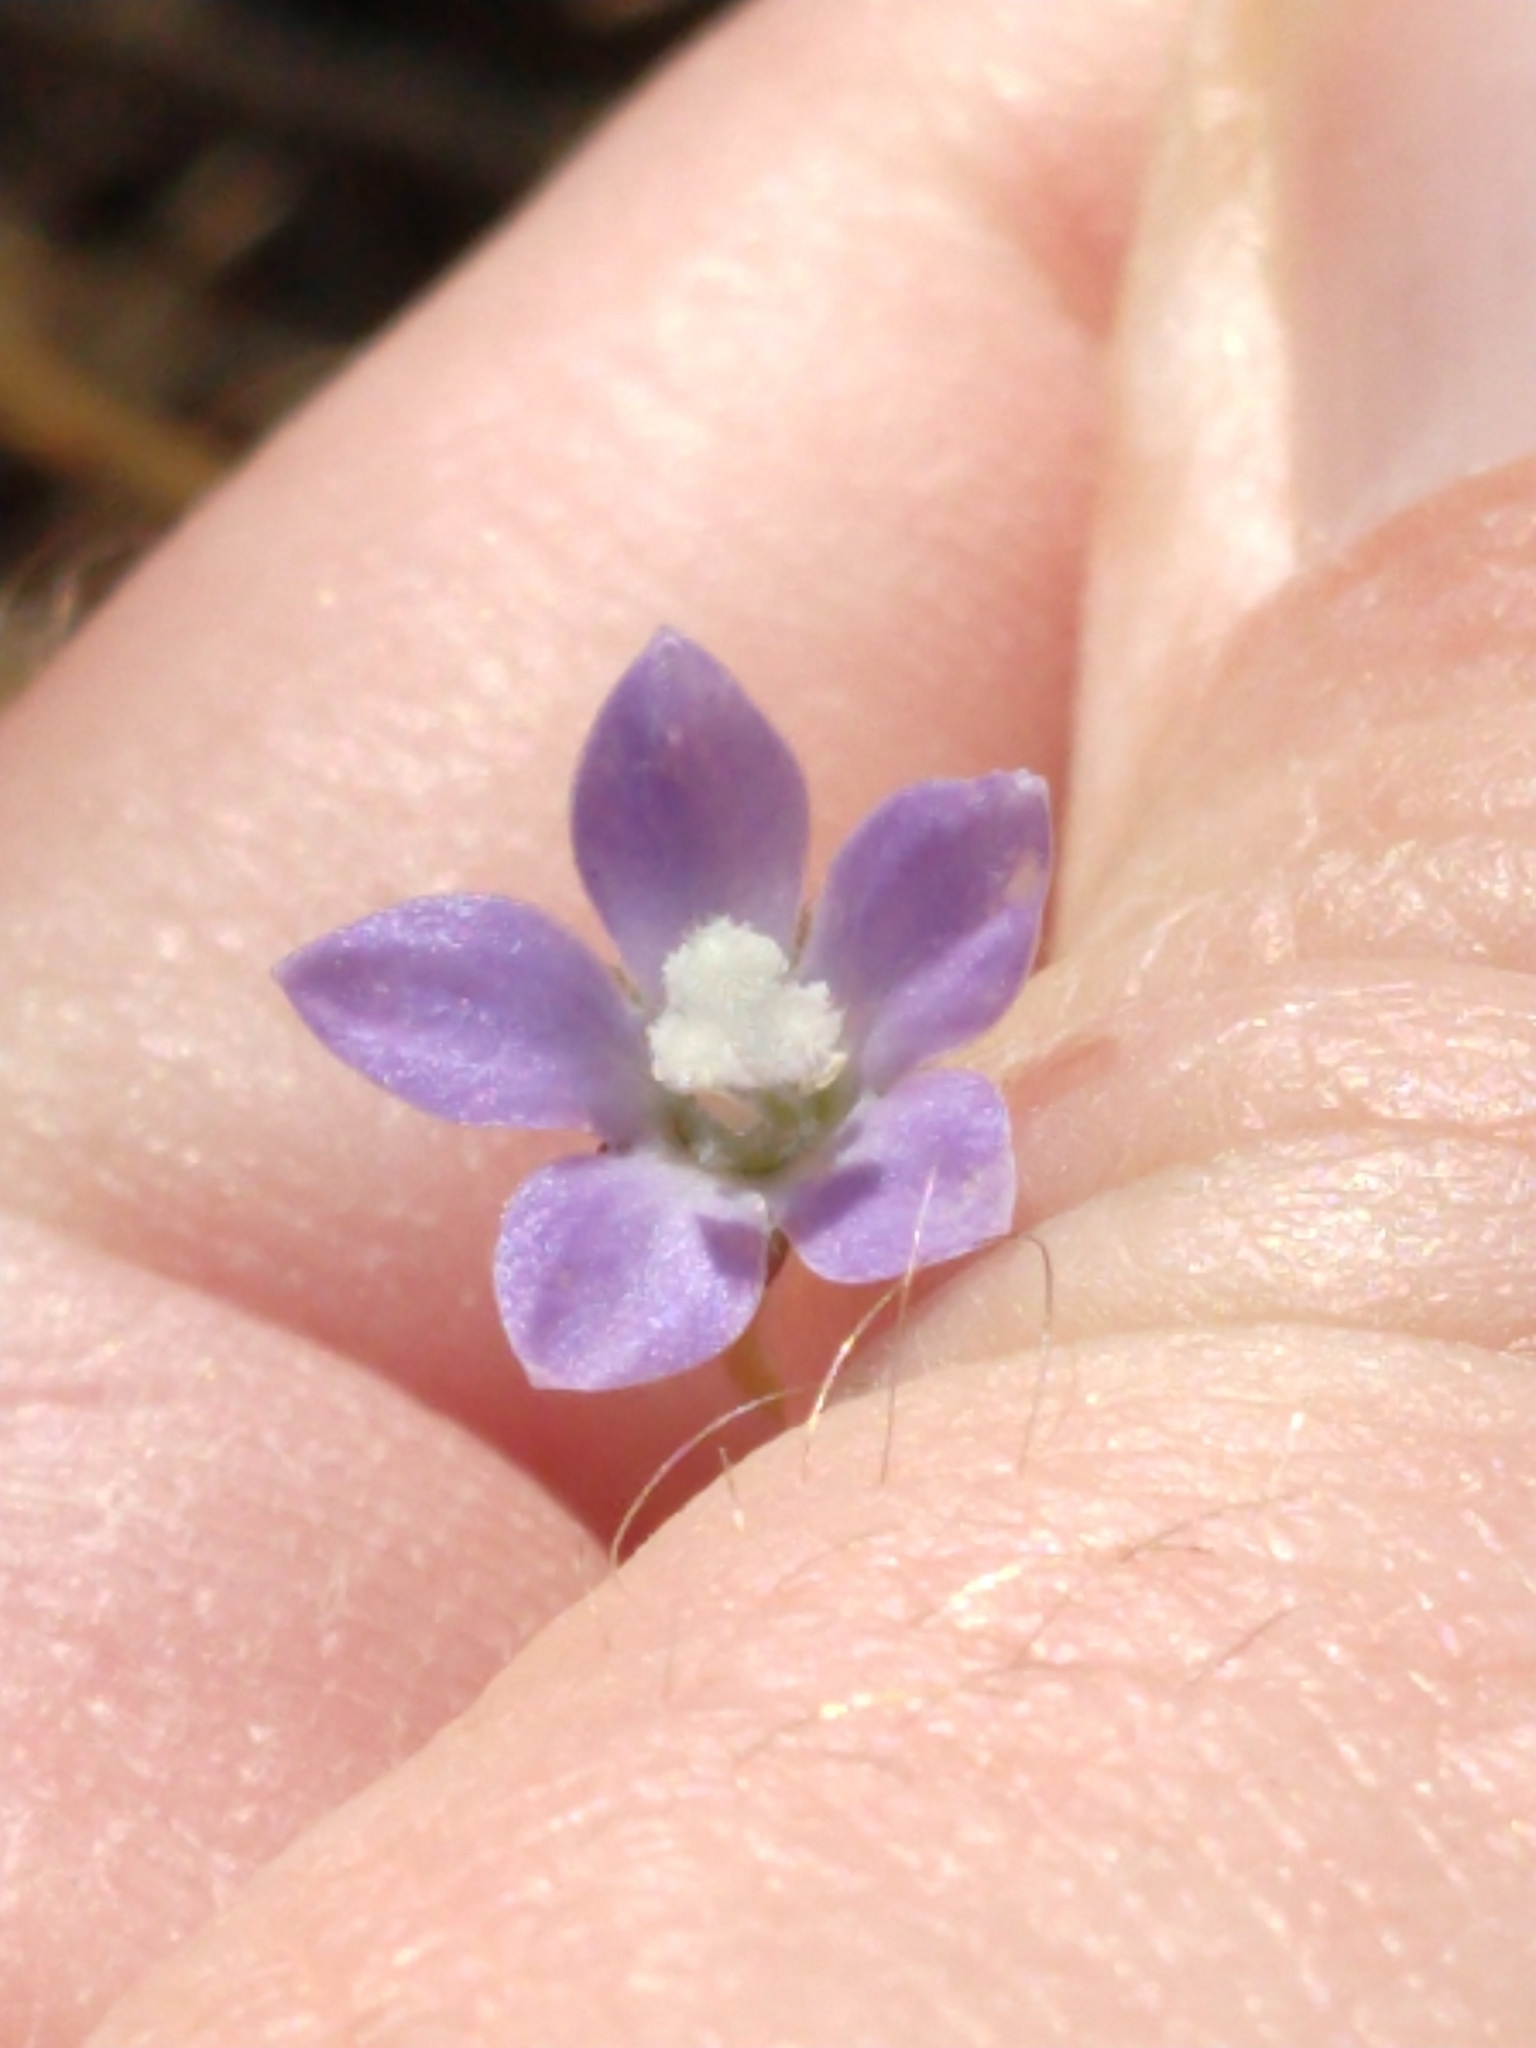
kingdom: Plantae
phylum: Tracheophyta
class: Magnoliopsida
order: Asterales
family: Campanulaceae
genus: Wahlenbergia
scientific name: Wahlenbergia marginata
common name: Southern rockbell
